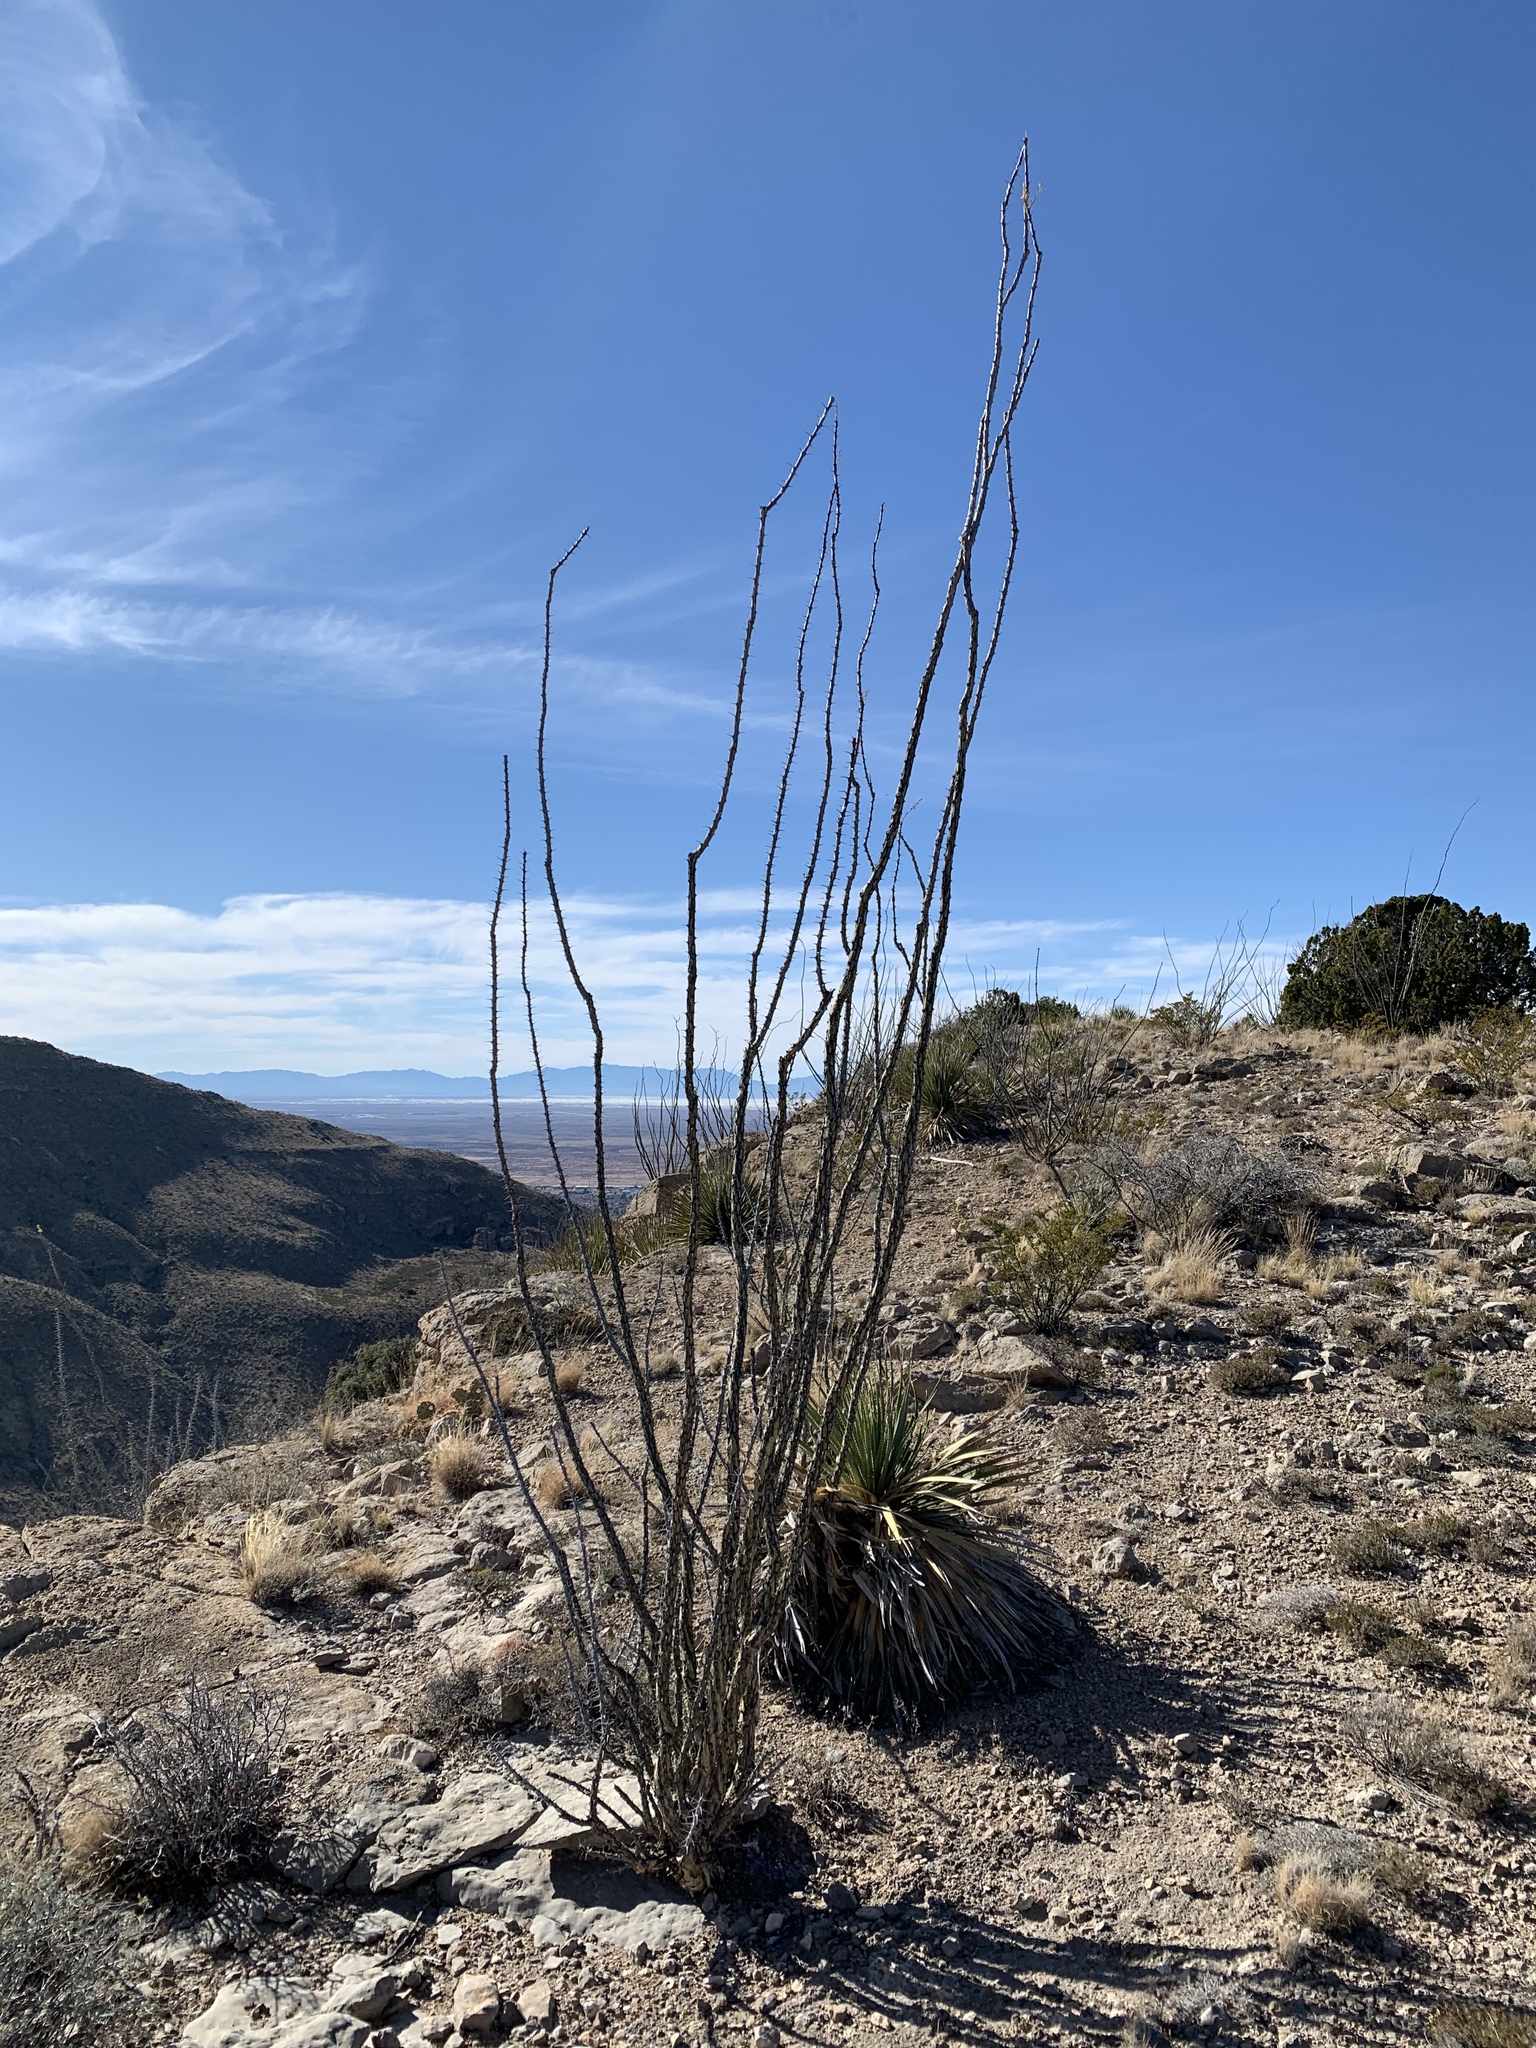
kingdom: Plantae
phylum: Tracheophyta
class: Magnoliopsida
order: Ericales
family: Fouquieriaceae
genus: Fouquieria
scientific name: Fouquieria splendens
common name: Vine-cactus
